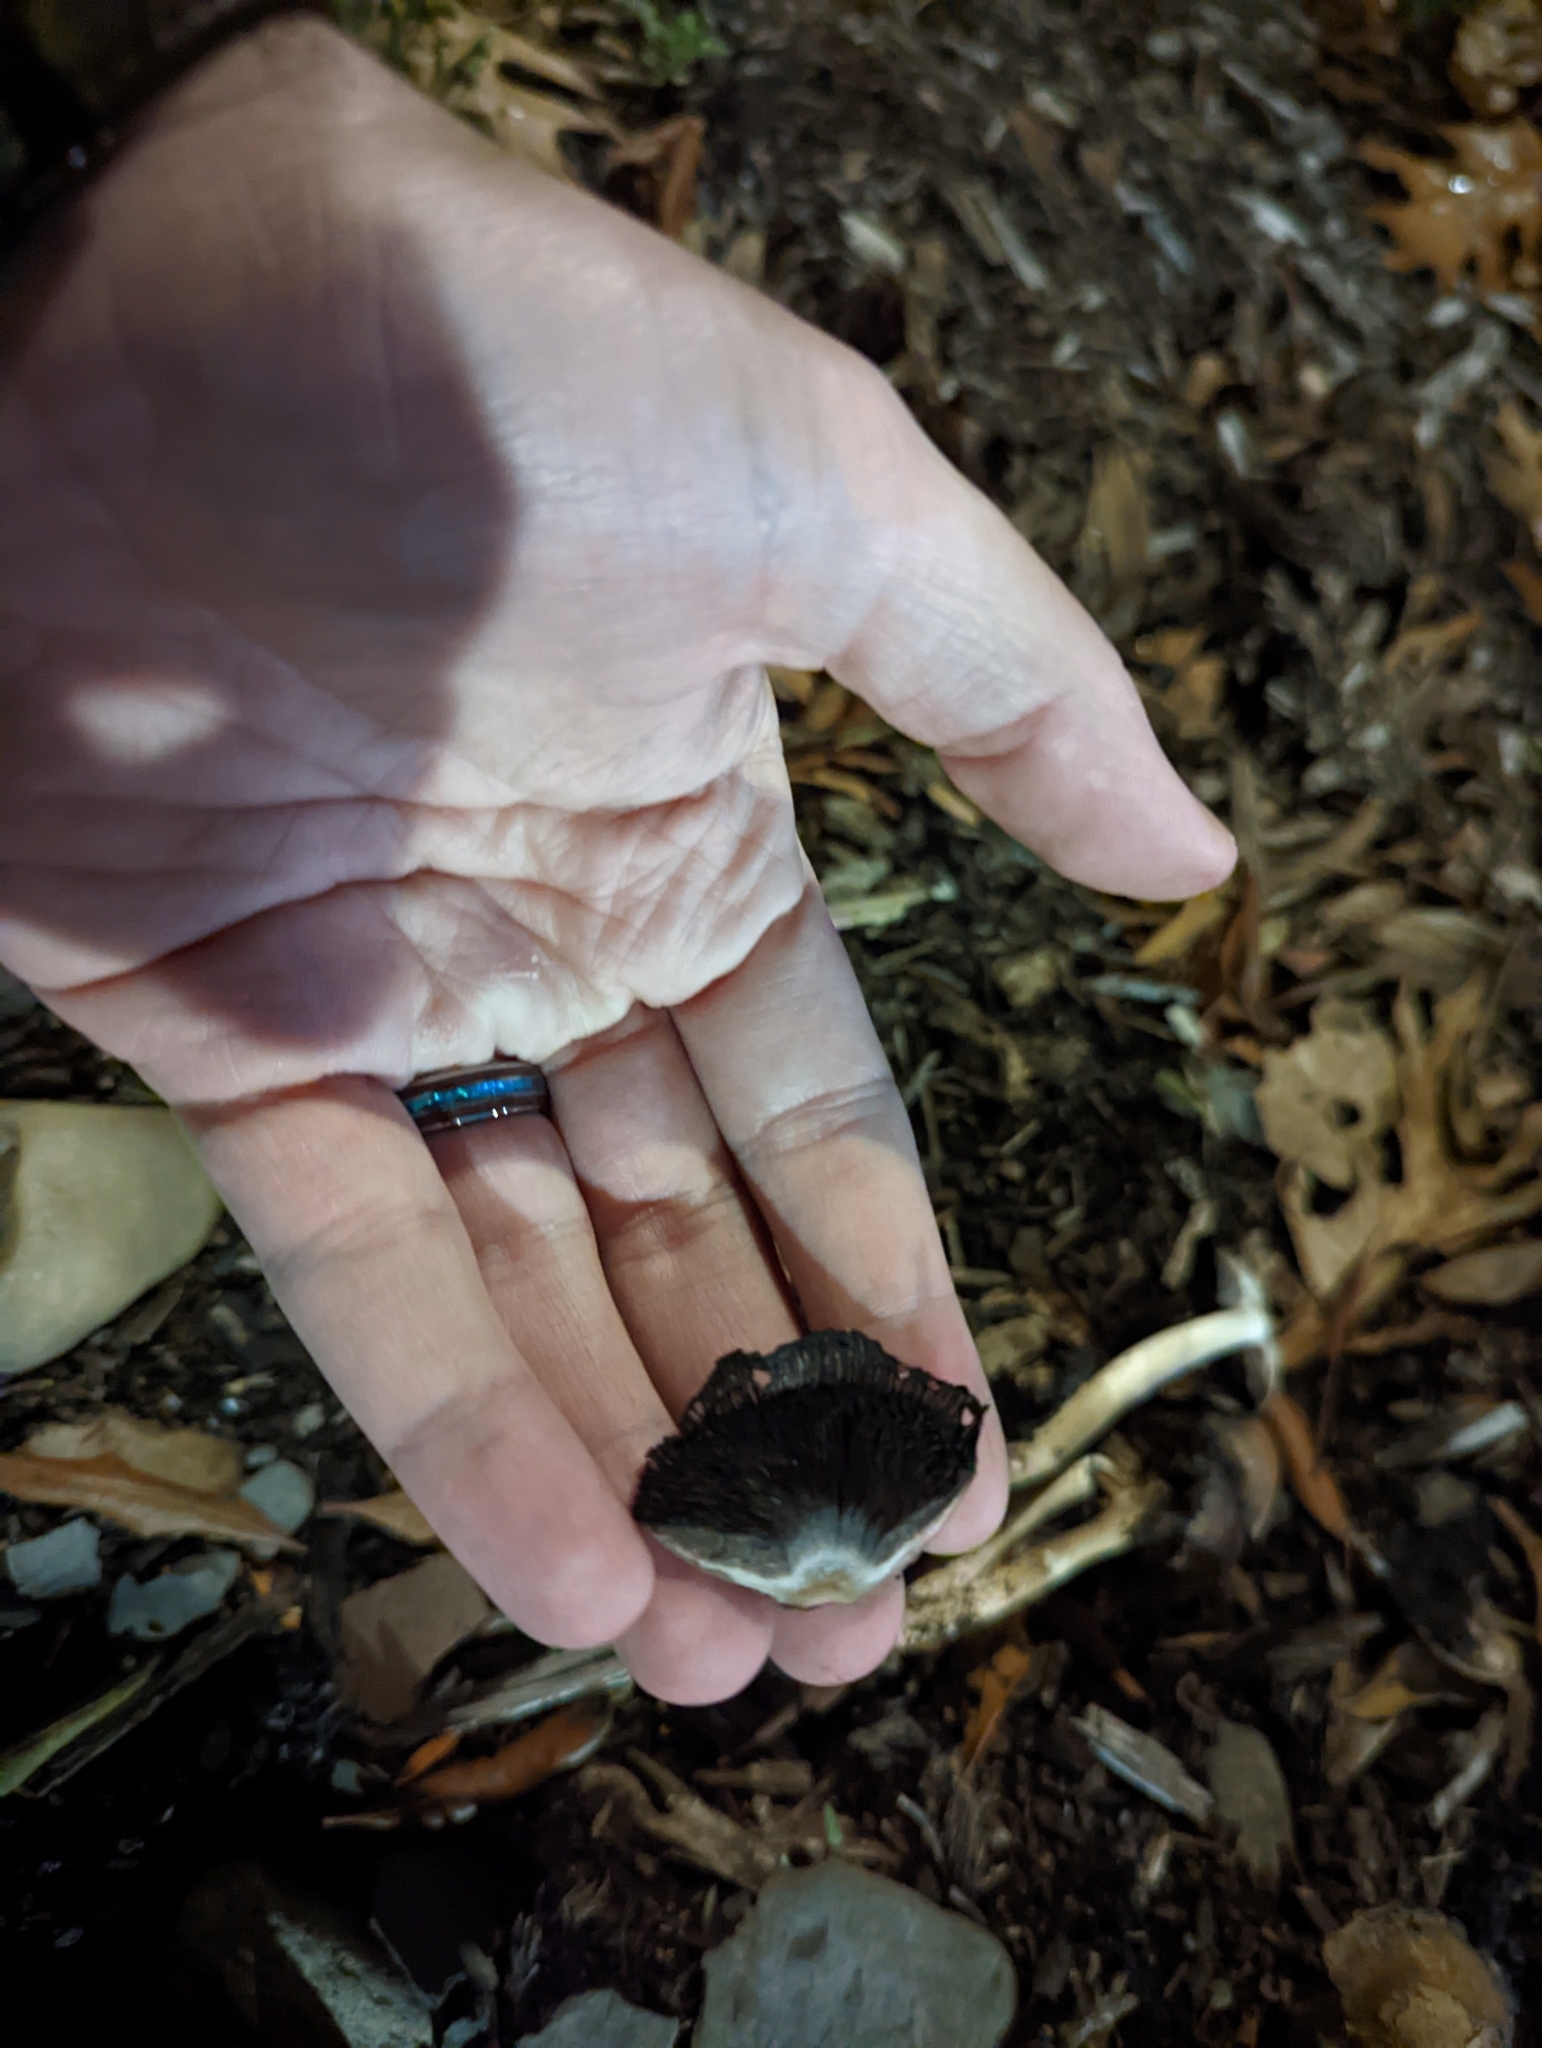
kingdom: Fungi
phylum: Basidiomycota
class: Agaricomycetes
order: Agaricales
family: Psathyrellaceae
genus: Coprinopsis
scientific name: Coprinopsis atramentaria
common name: Common ink-cap
